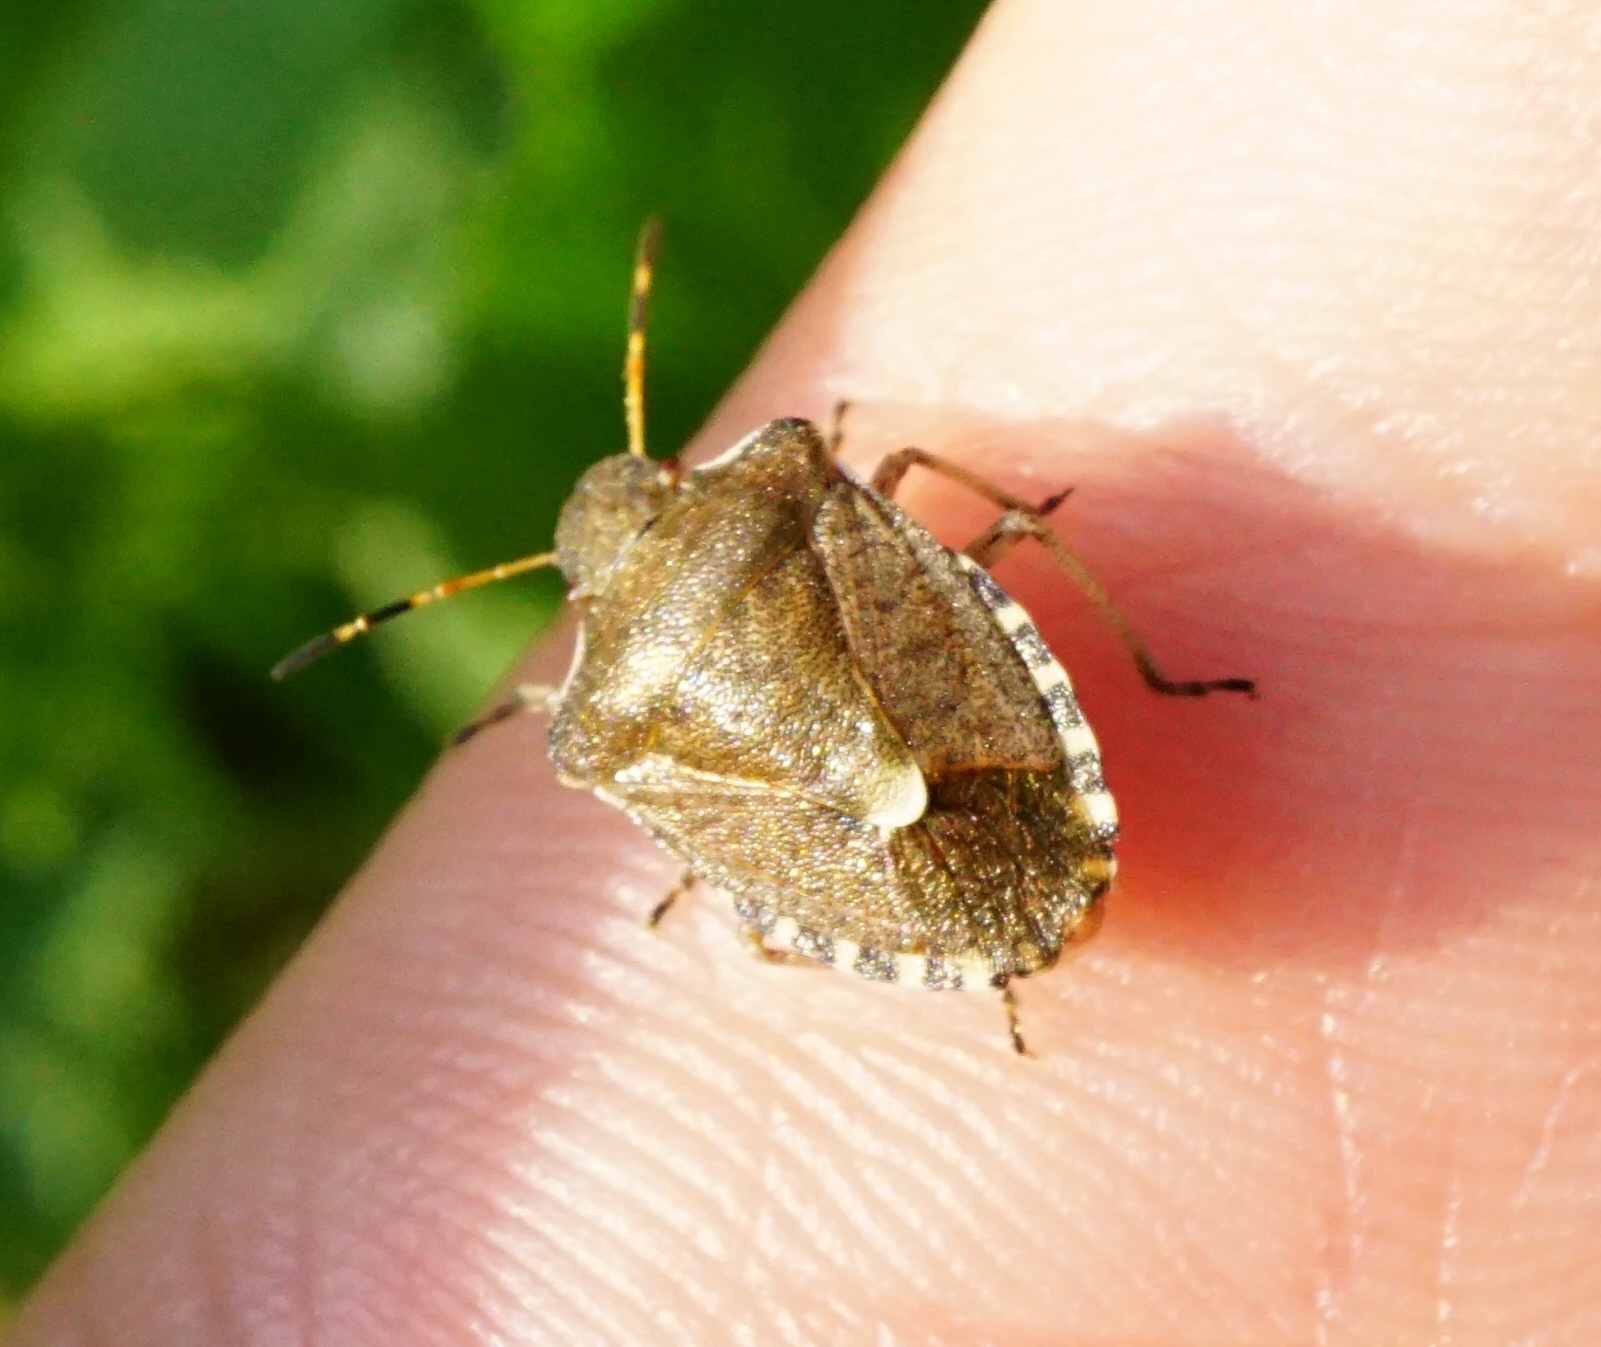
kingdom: Animalia
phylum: Arthropoda
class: Insecta
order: Hemiptera
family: Pentatomidae
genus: Holcostethus
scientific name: Holcostethus strictus
